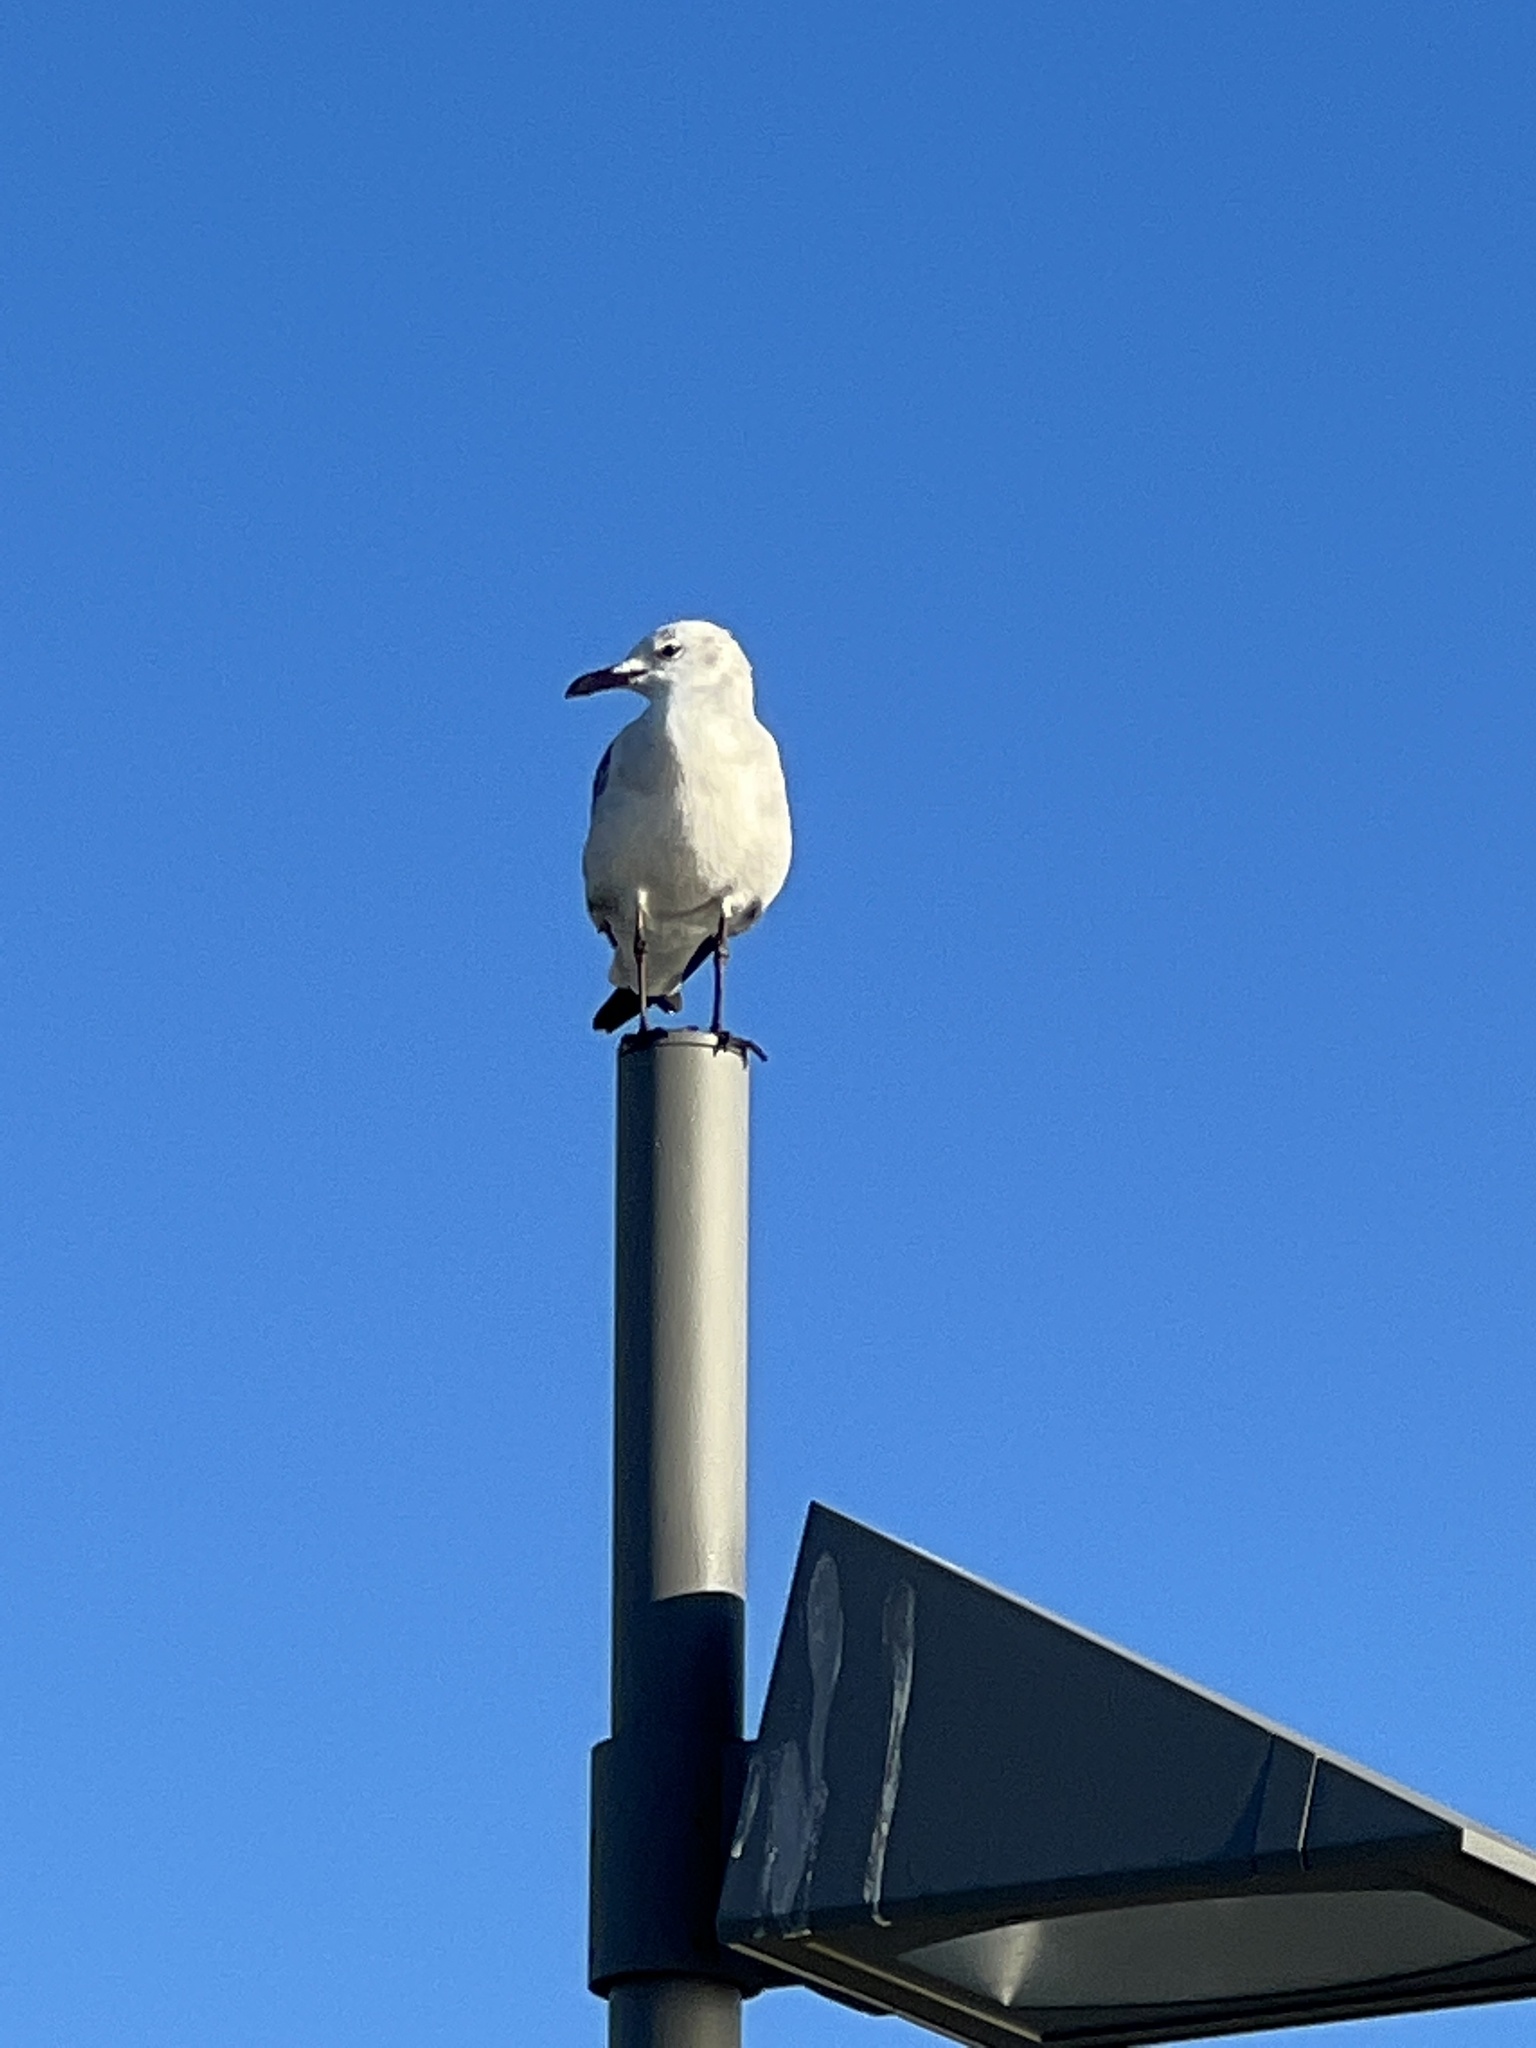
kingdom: Animalia
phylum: Chordata
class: Aves
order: Charadriiformes
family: Laridae
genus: Leucophaeus
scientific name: Leucophaeus atricilla
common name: Laughing gull
